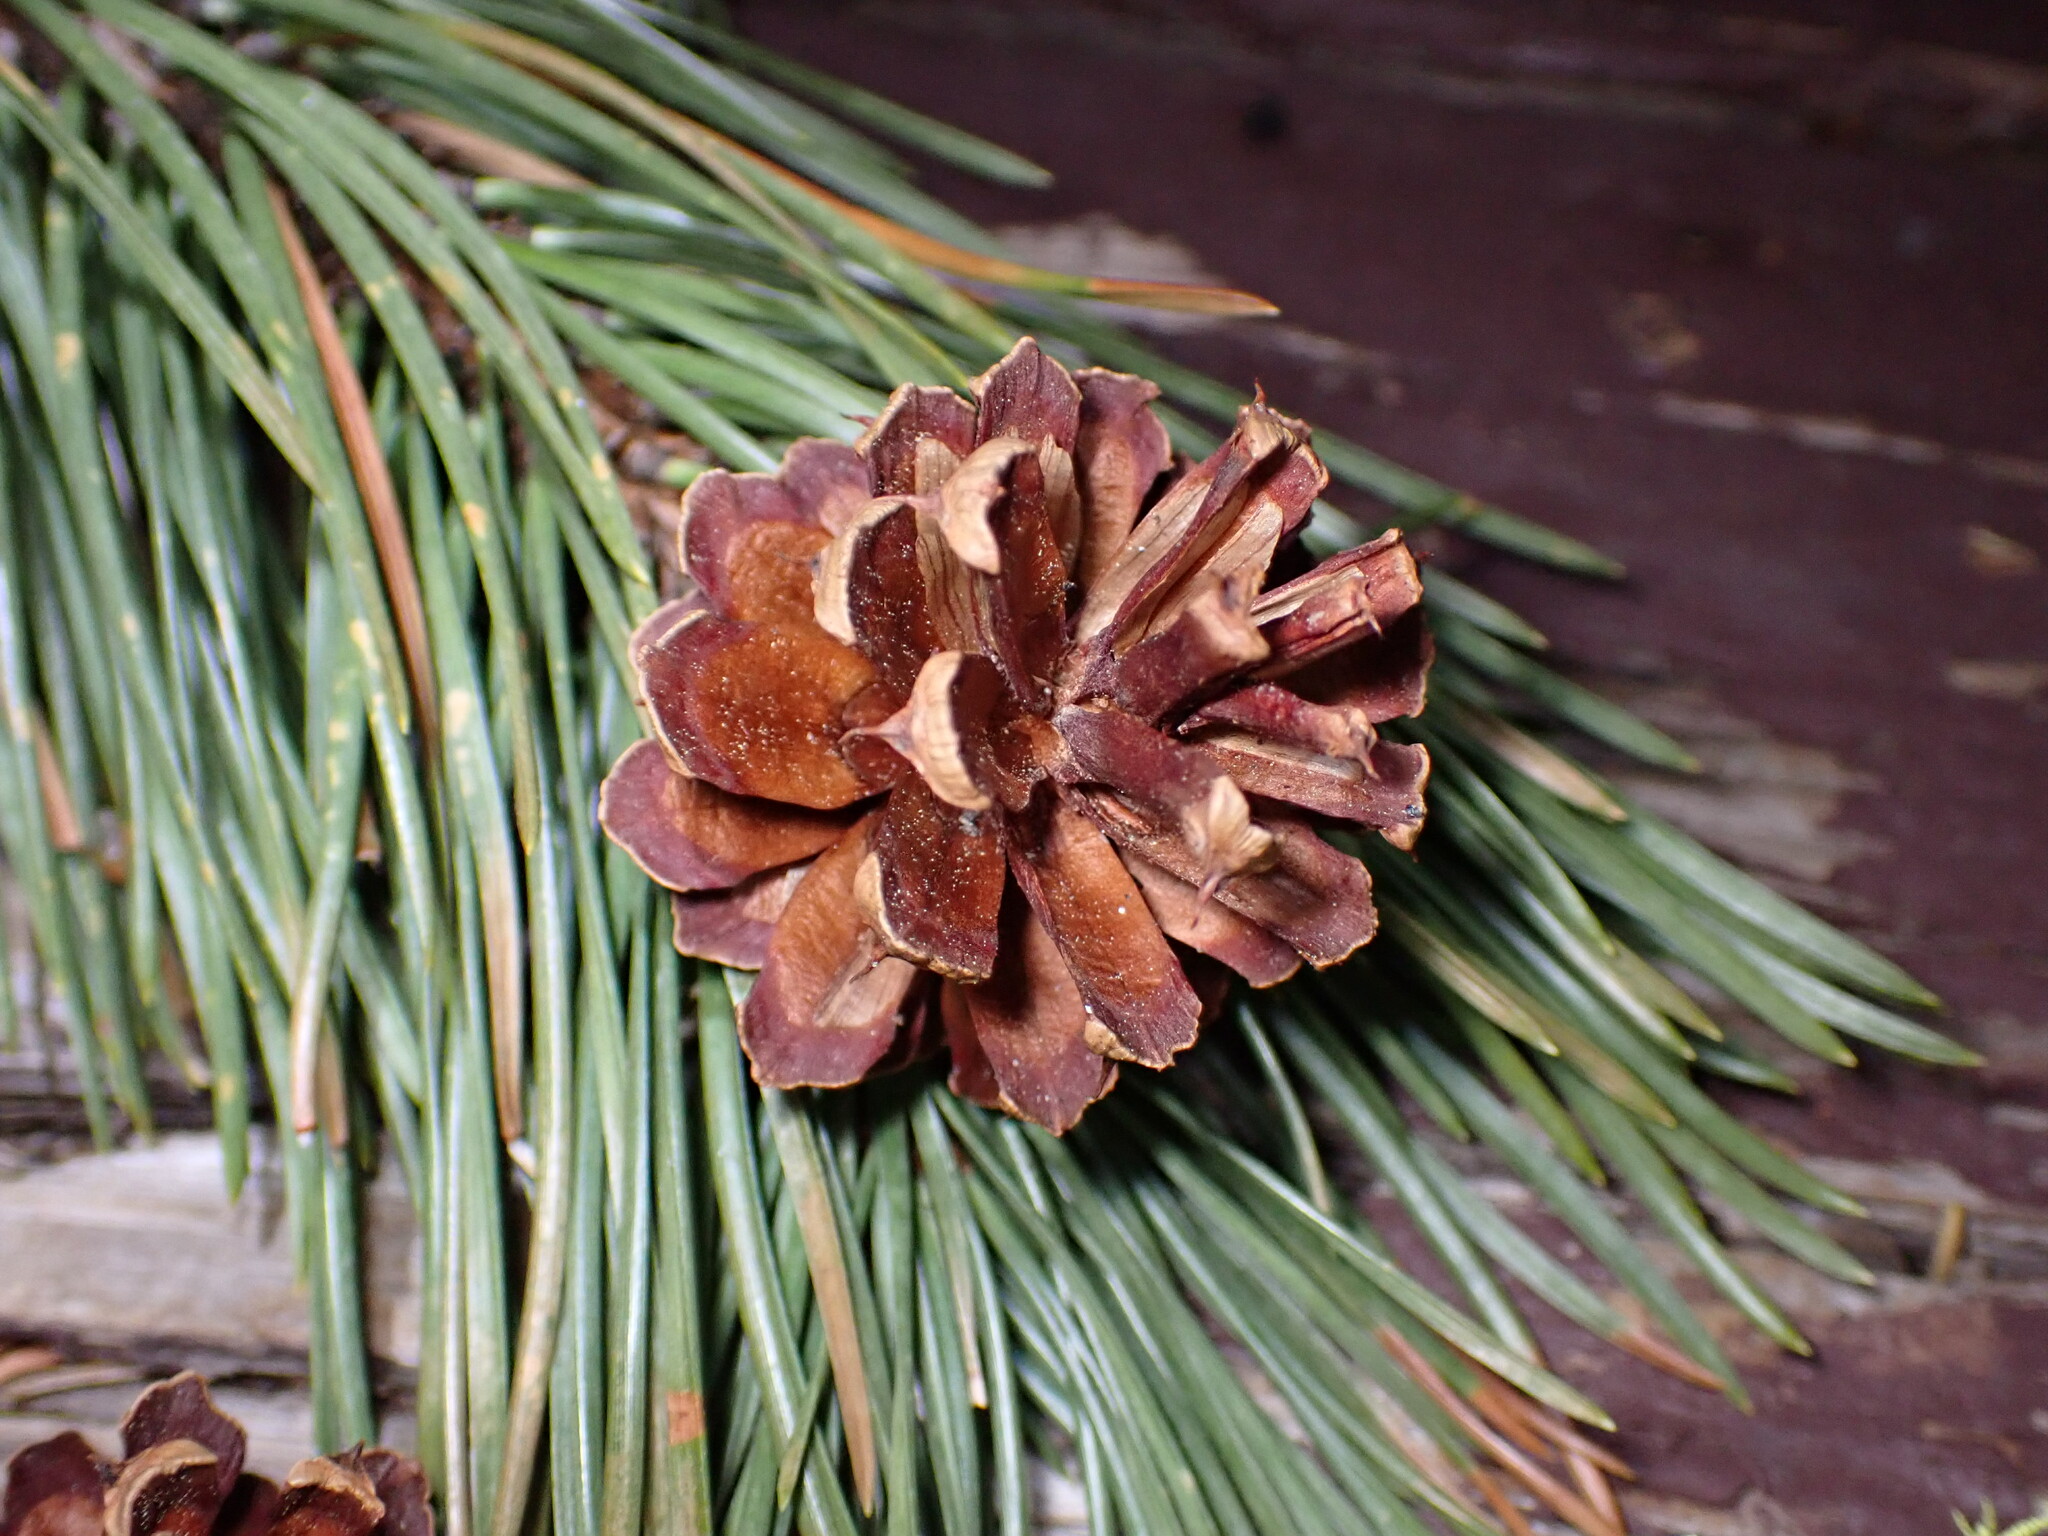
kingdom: Plantae
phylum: Tracheophyta
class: Pinopsida
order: Pinales
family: Pinaceae
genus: Pinus
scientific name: Pinus contorta
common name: Lodgepole pine
